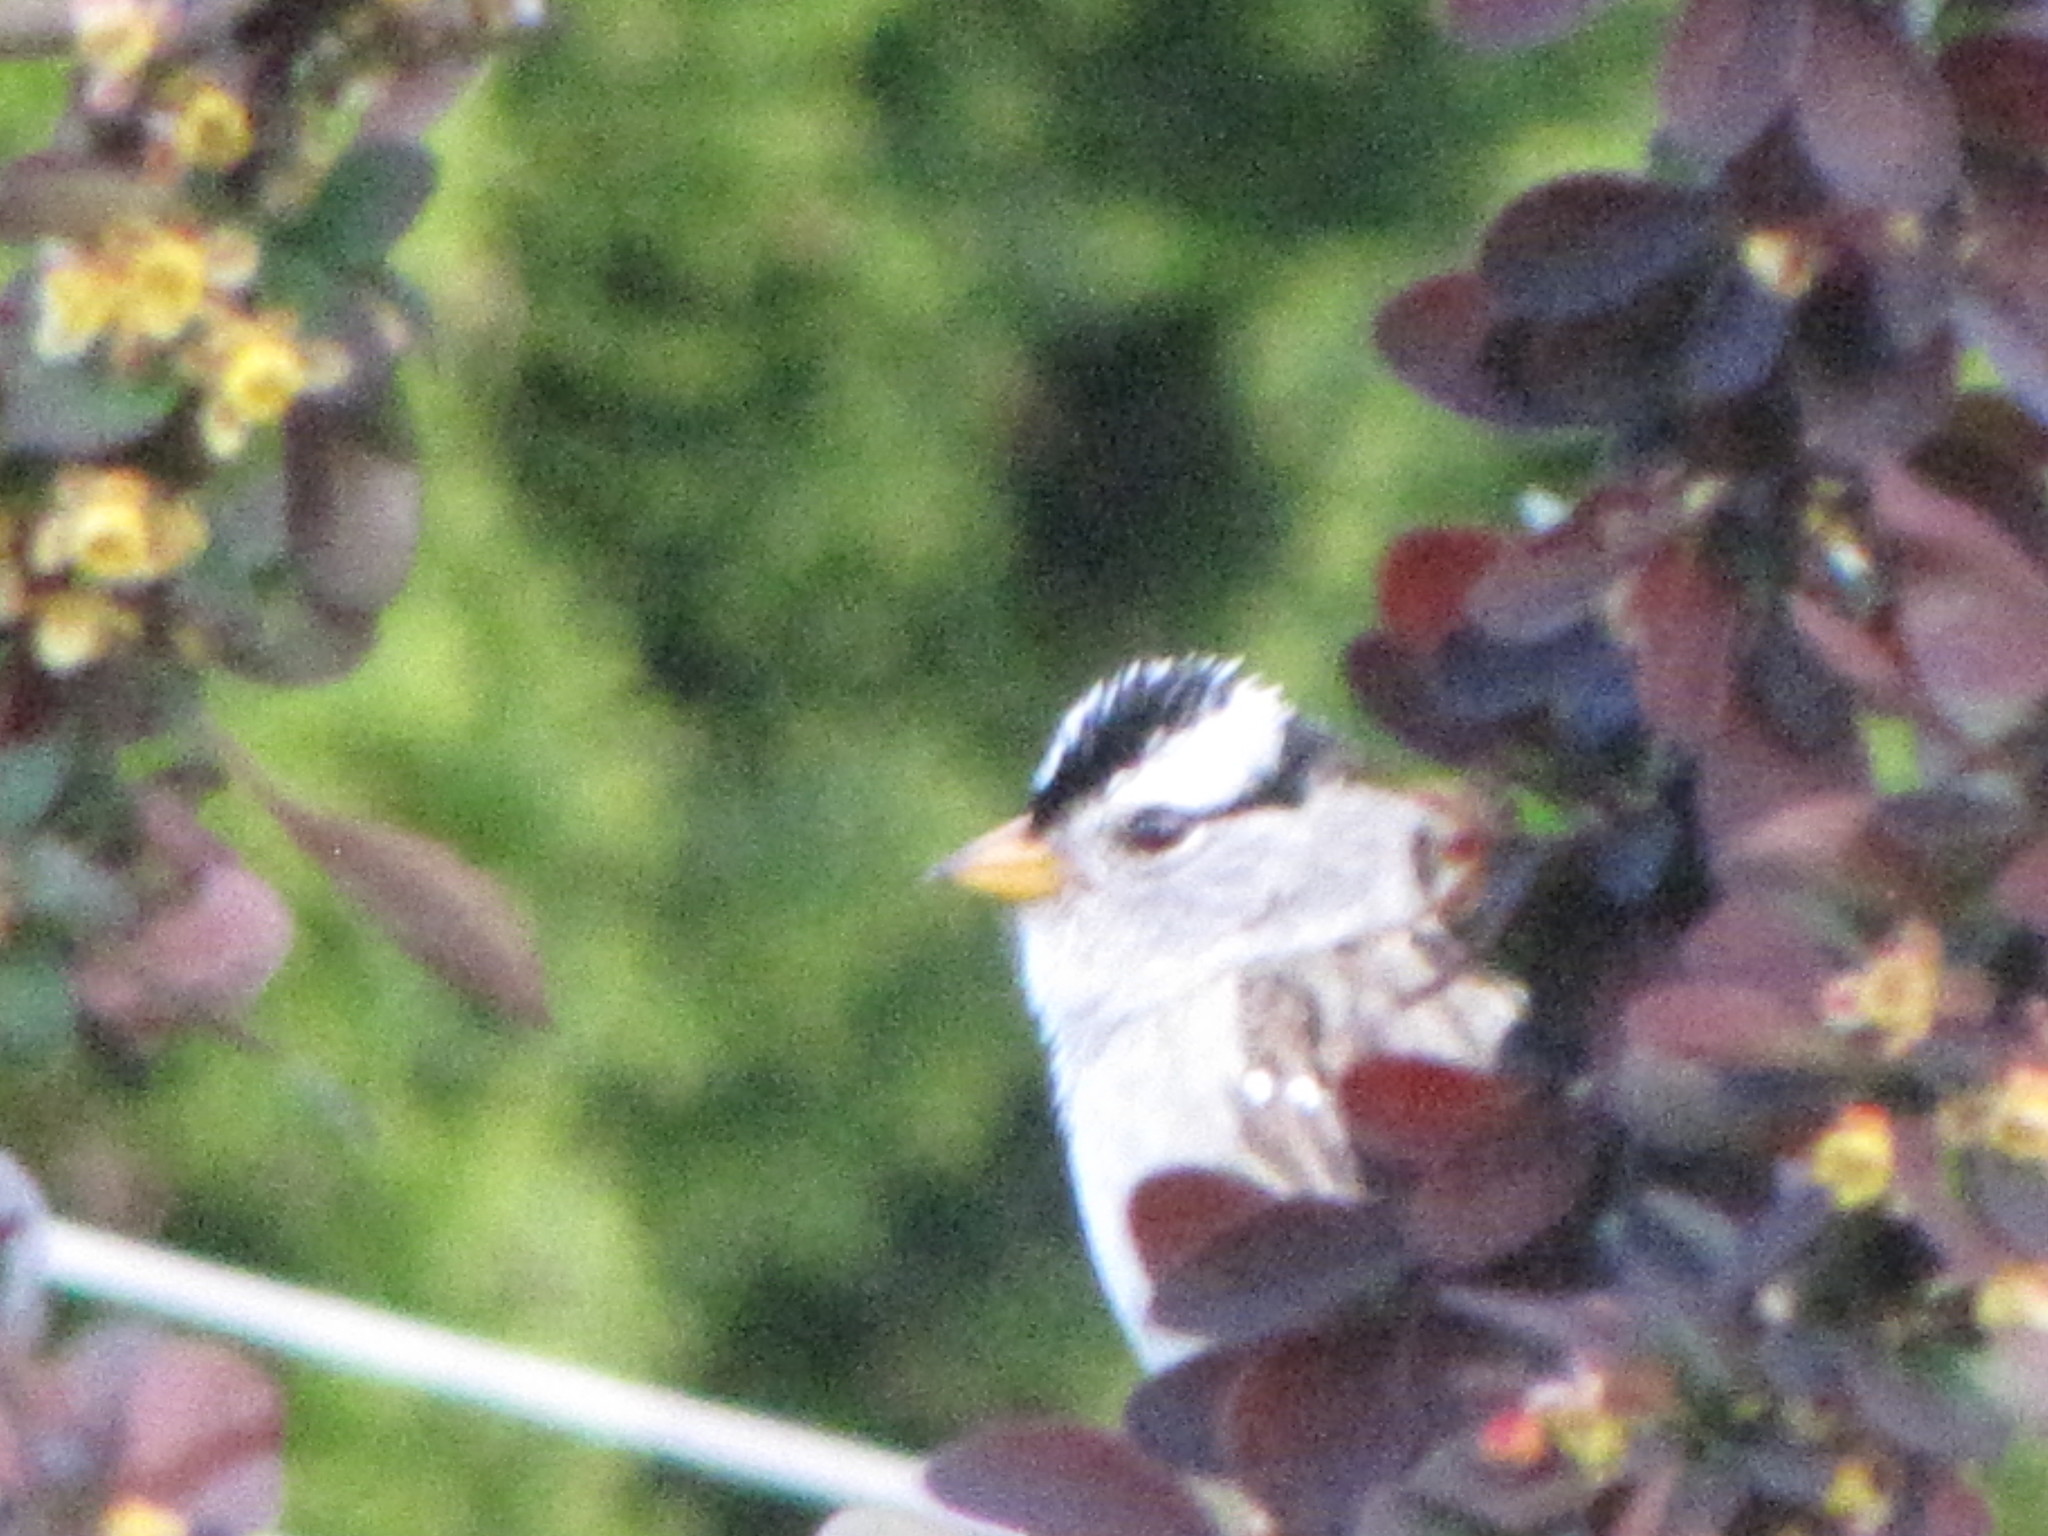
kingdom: Animalia
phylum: Chordata
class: Aves
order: Passeriformes
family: Passerellidae
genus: Zonotrichia
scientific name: Zonotrichia leucophrys
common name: White-crowned sparrow
